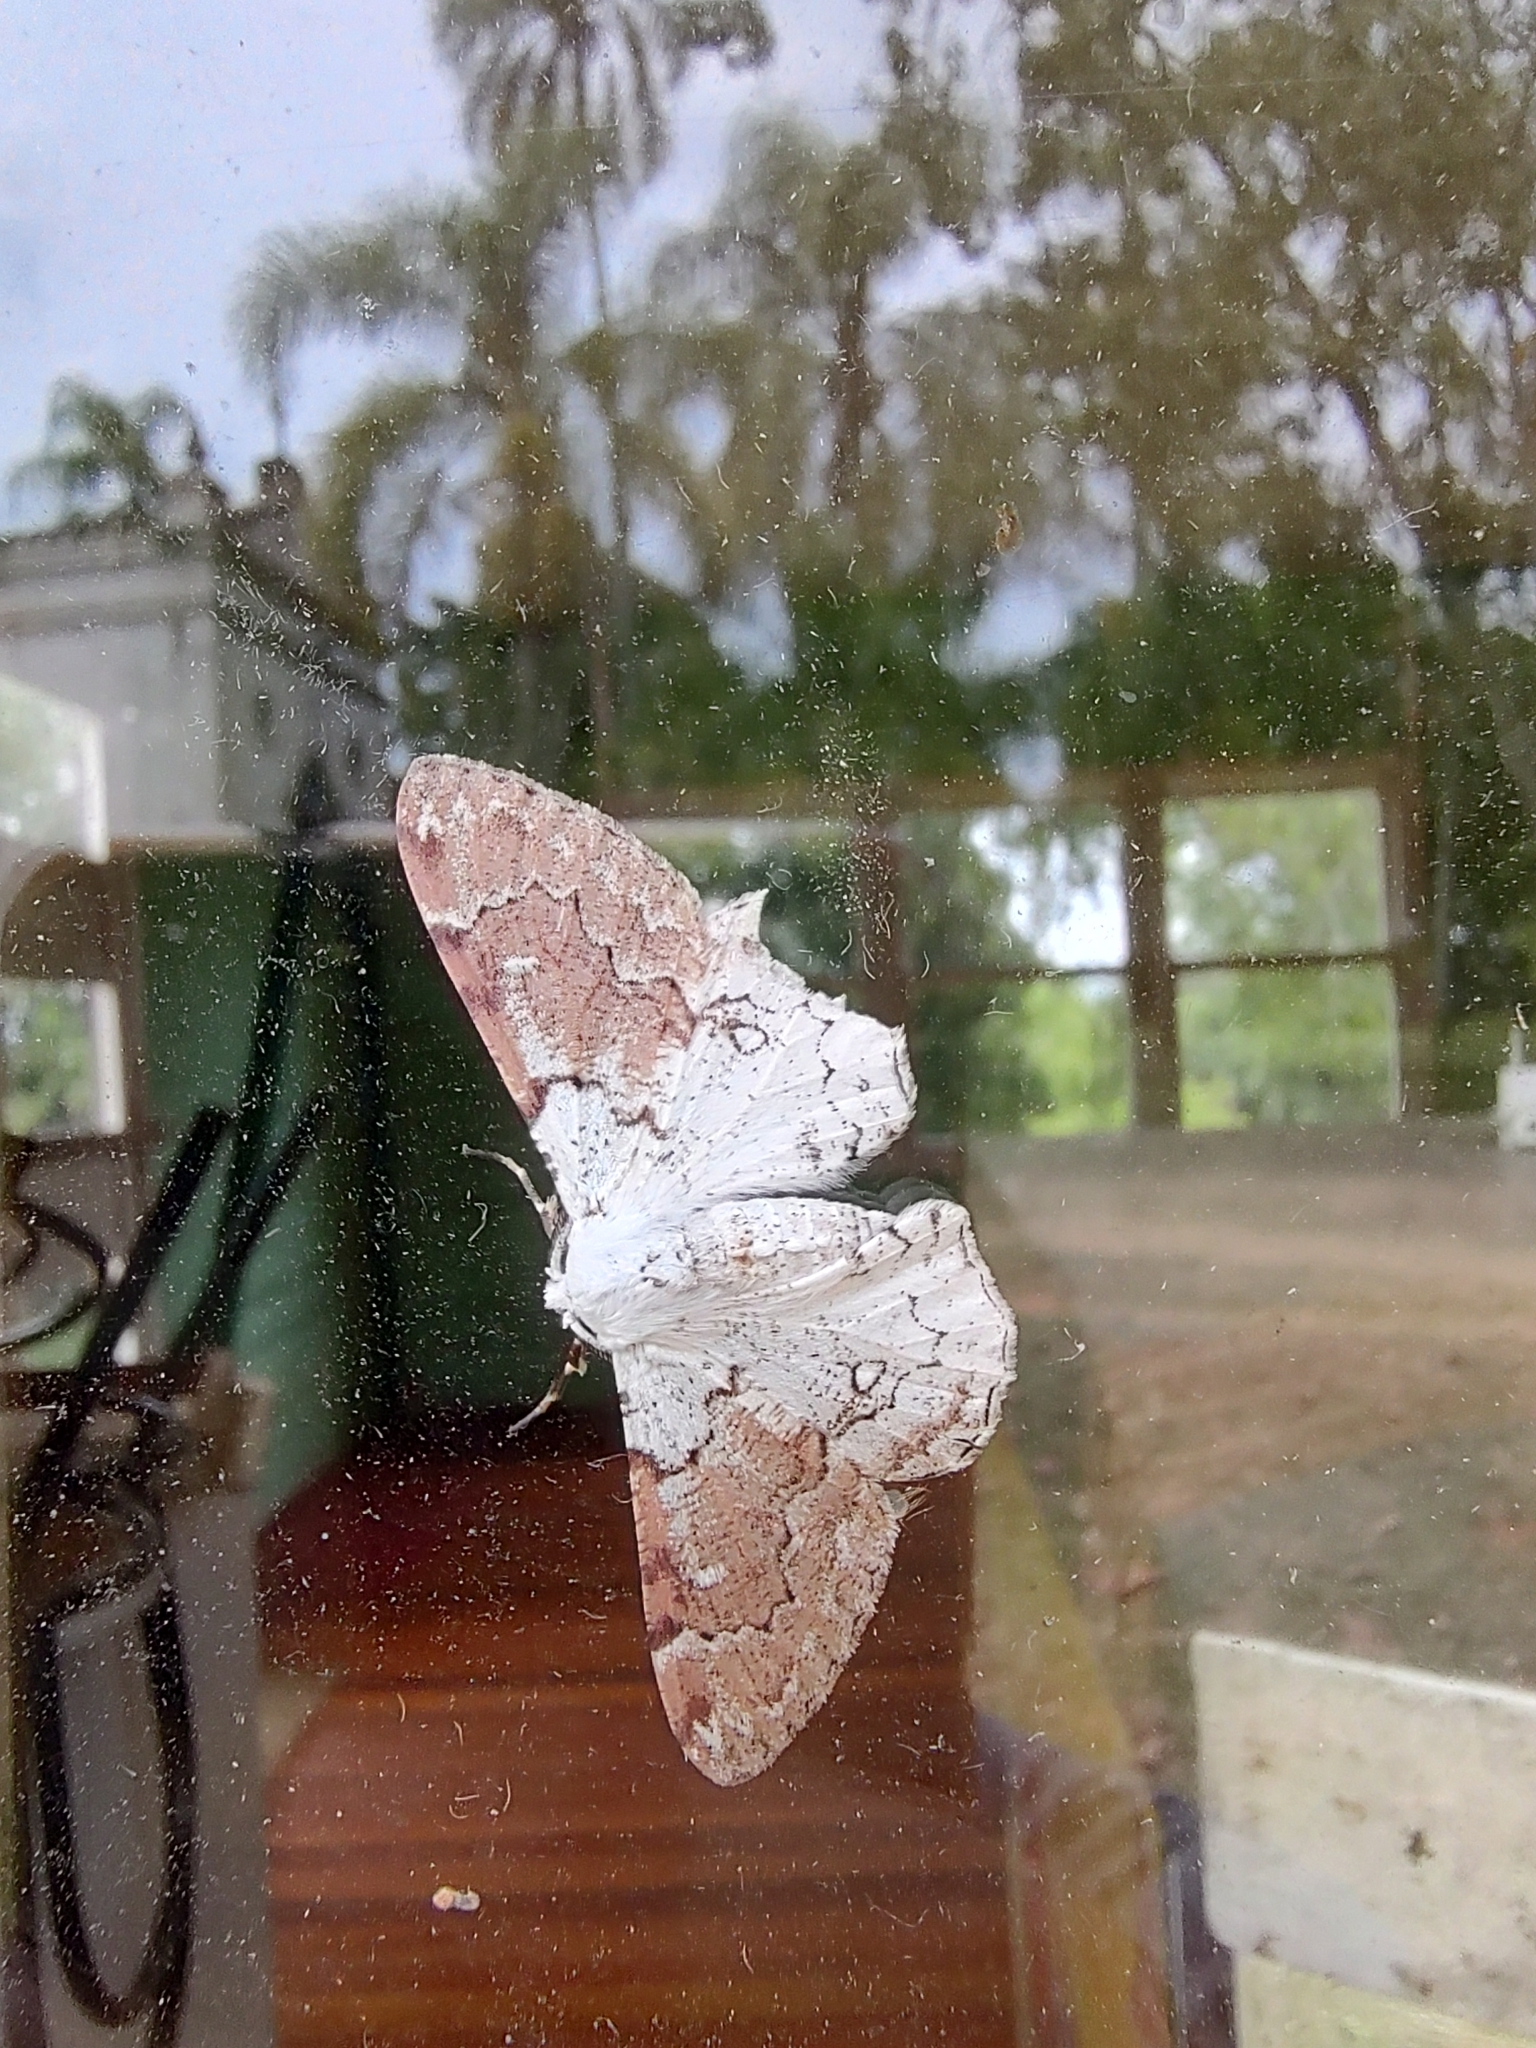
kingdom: Animalia
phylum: Arthropoda
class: Insecta
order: Lepidoptera
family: Geometridae
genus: Thyrinteina
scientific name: Thyrinteina arnobia
